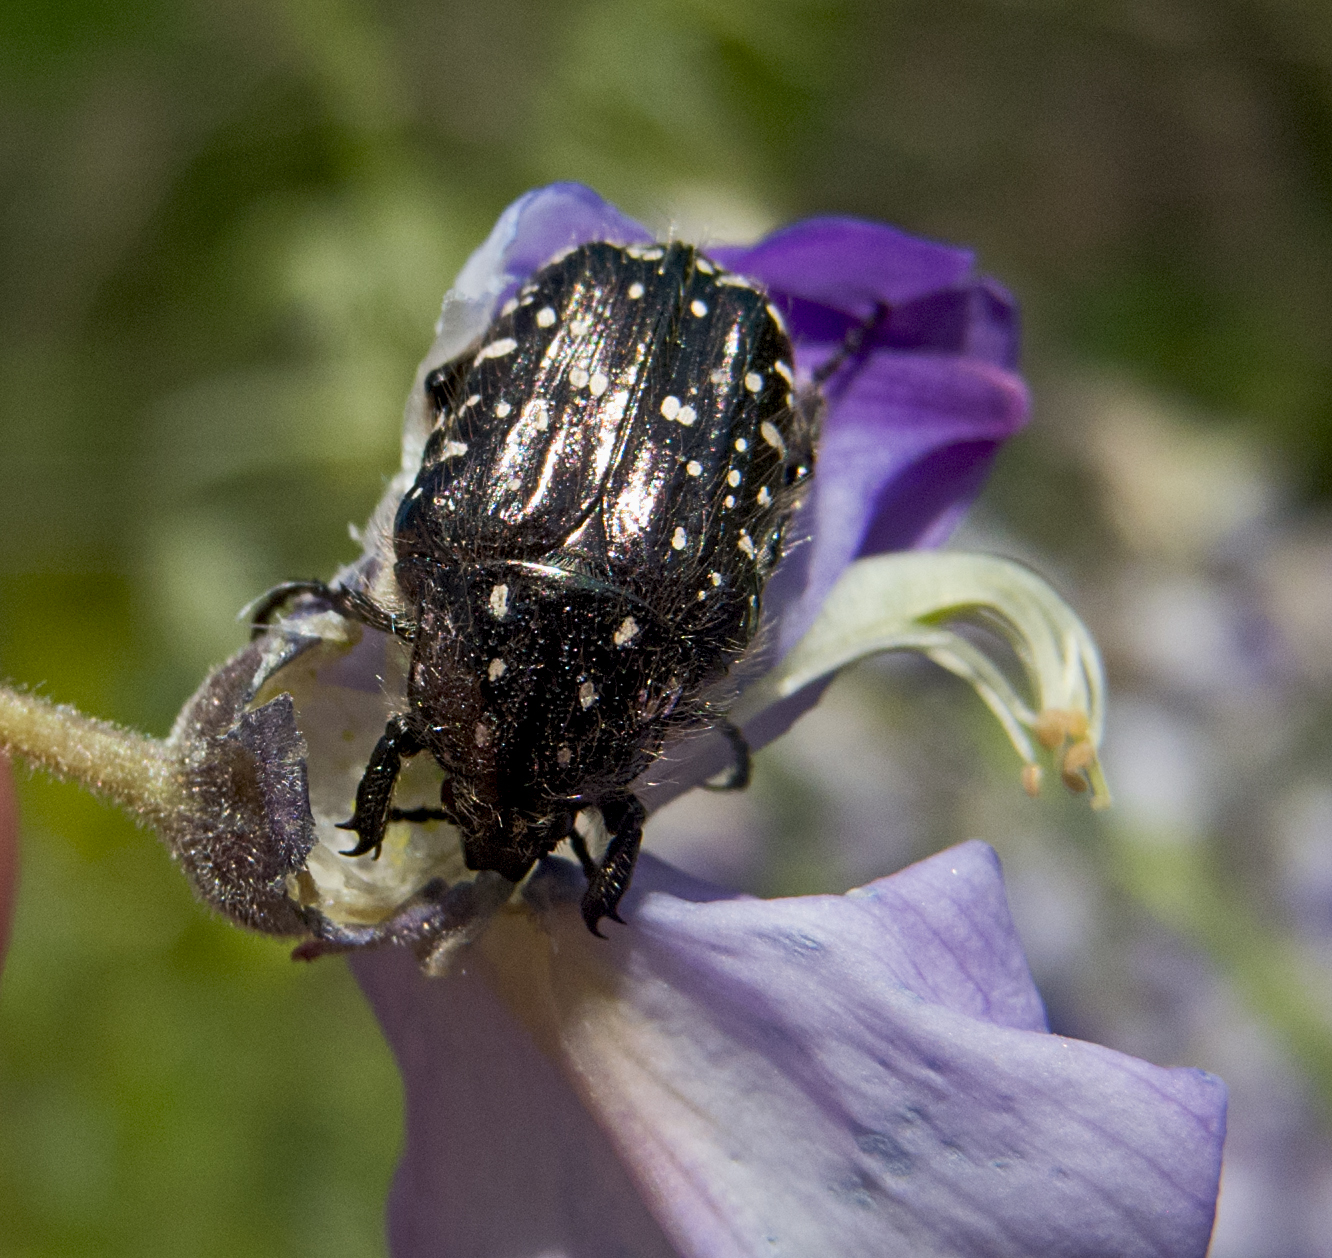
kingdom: Animalia
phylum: Arthropoda
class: Insecta
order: Coleoptera
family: Scarabaeidae
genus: Oxythyrea
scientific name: Oxythyrea funesta
